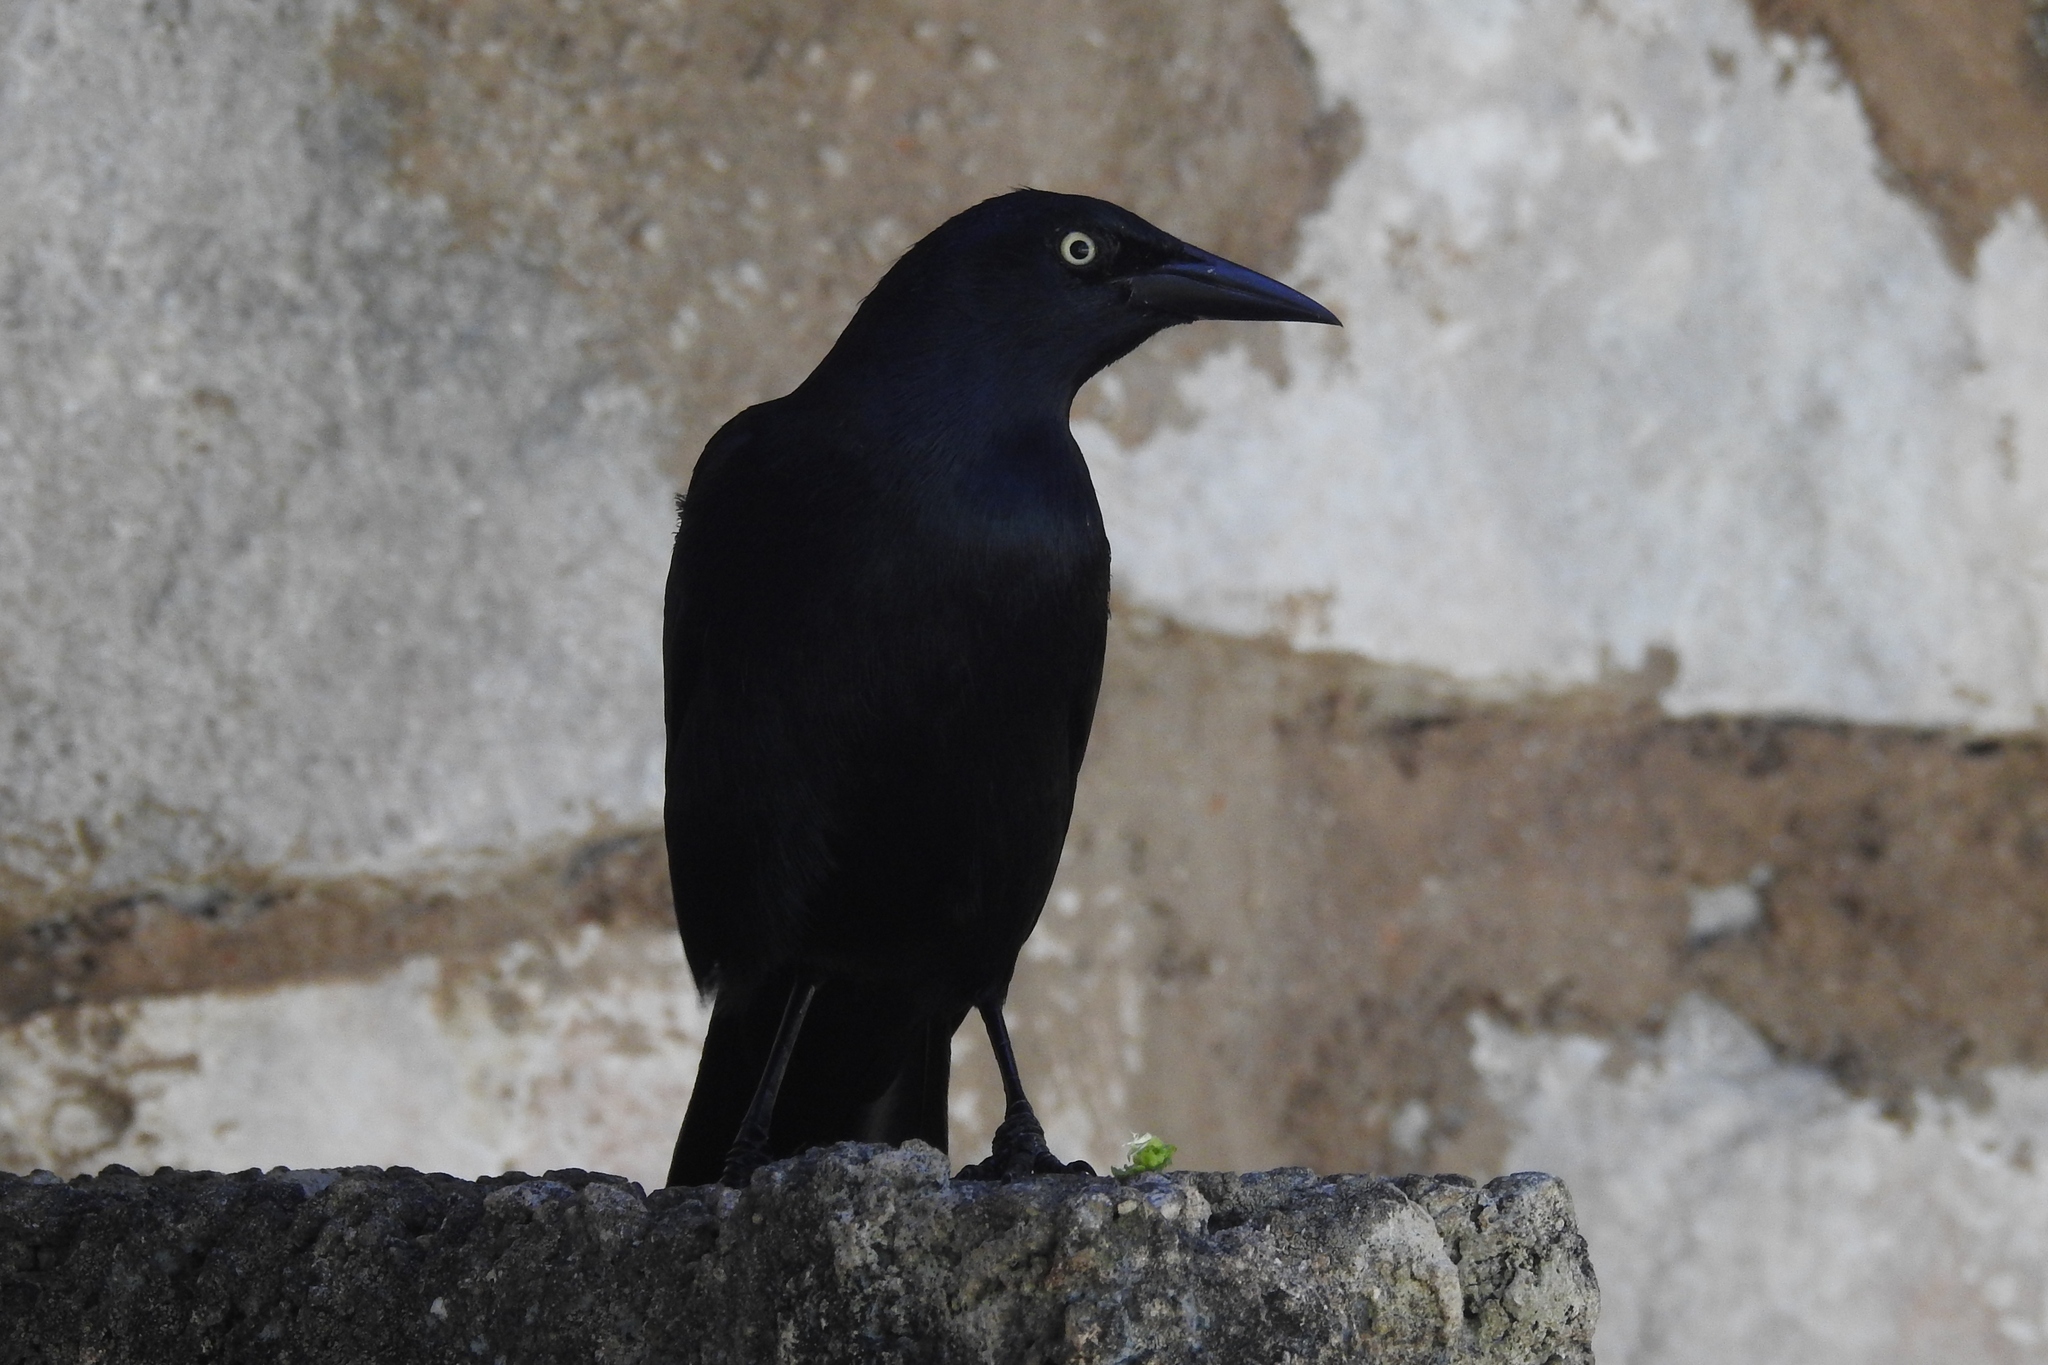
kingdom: Animalia
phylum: Chordata
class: Aves
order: Passeriformes
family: Icteridae
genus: Quiscalus
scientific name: Quiscalus niger
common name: Greater antillean grackle
